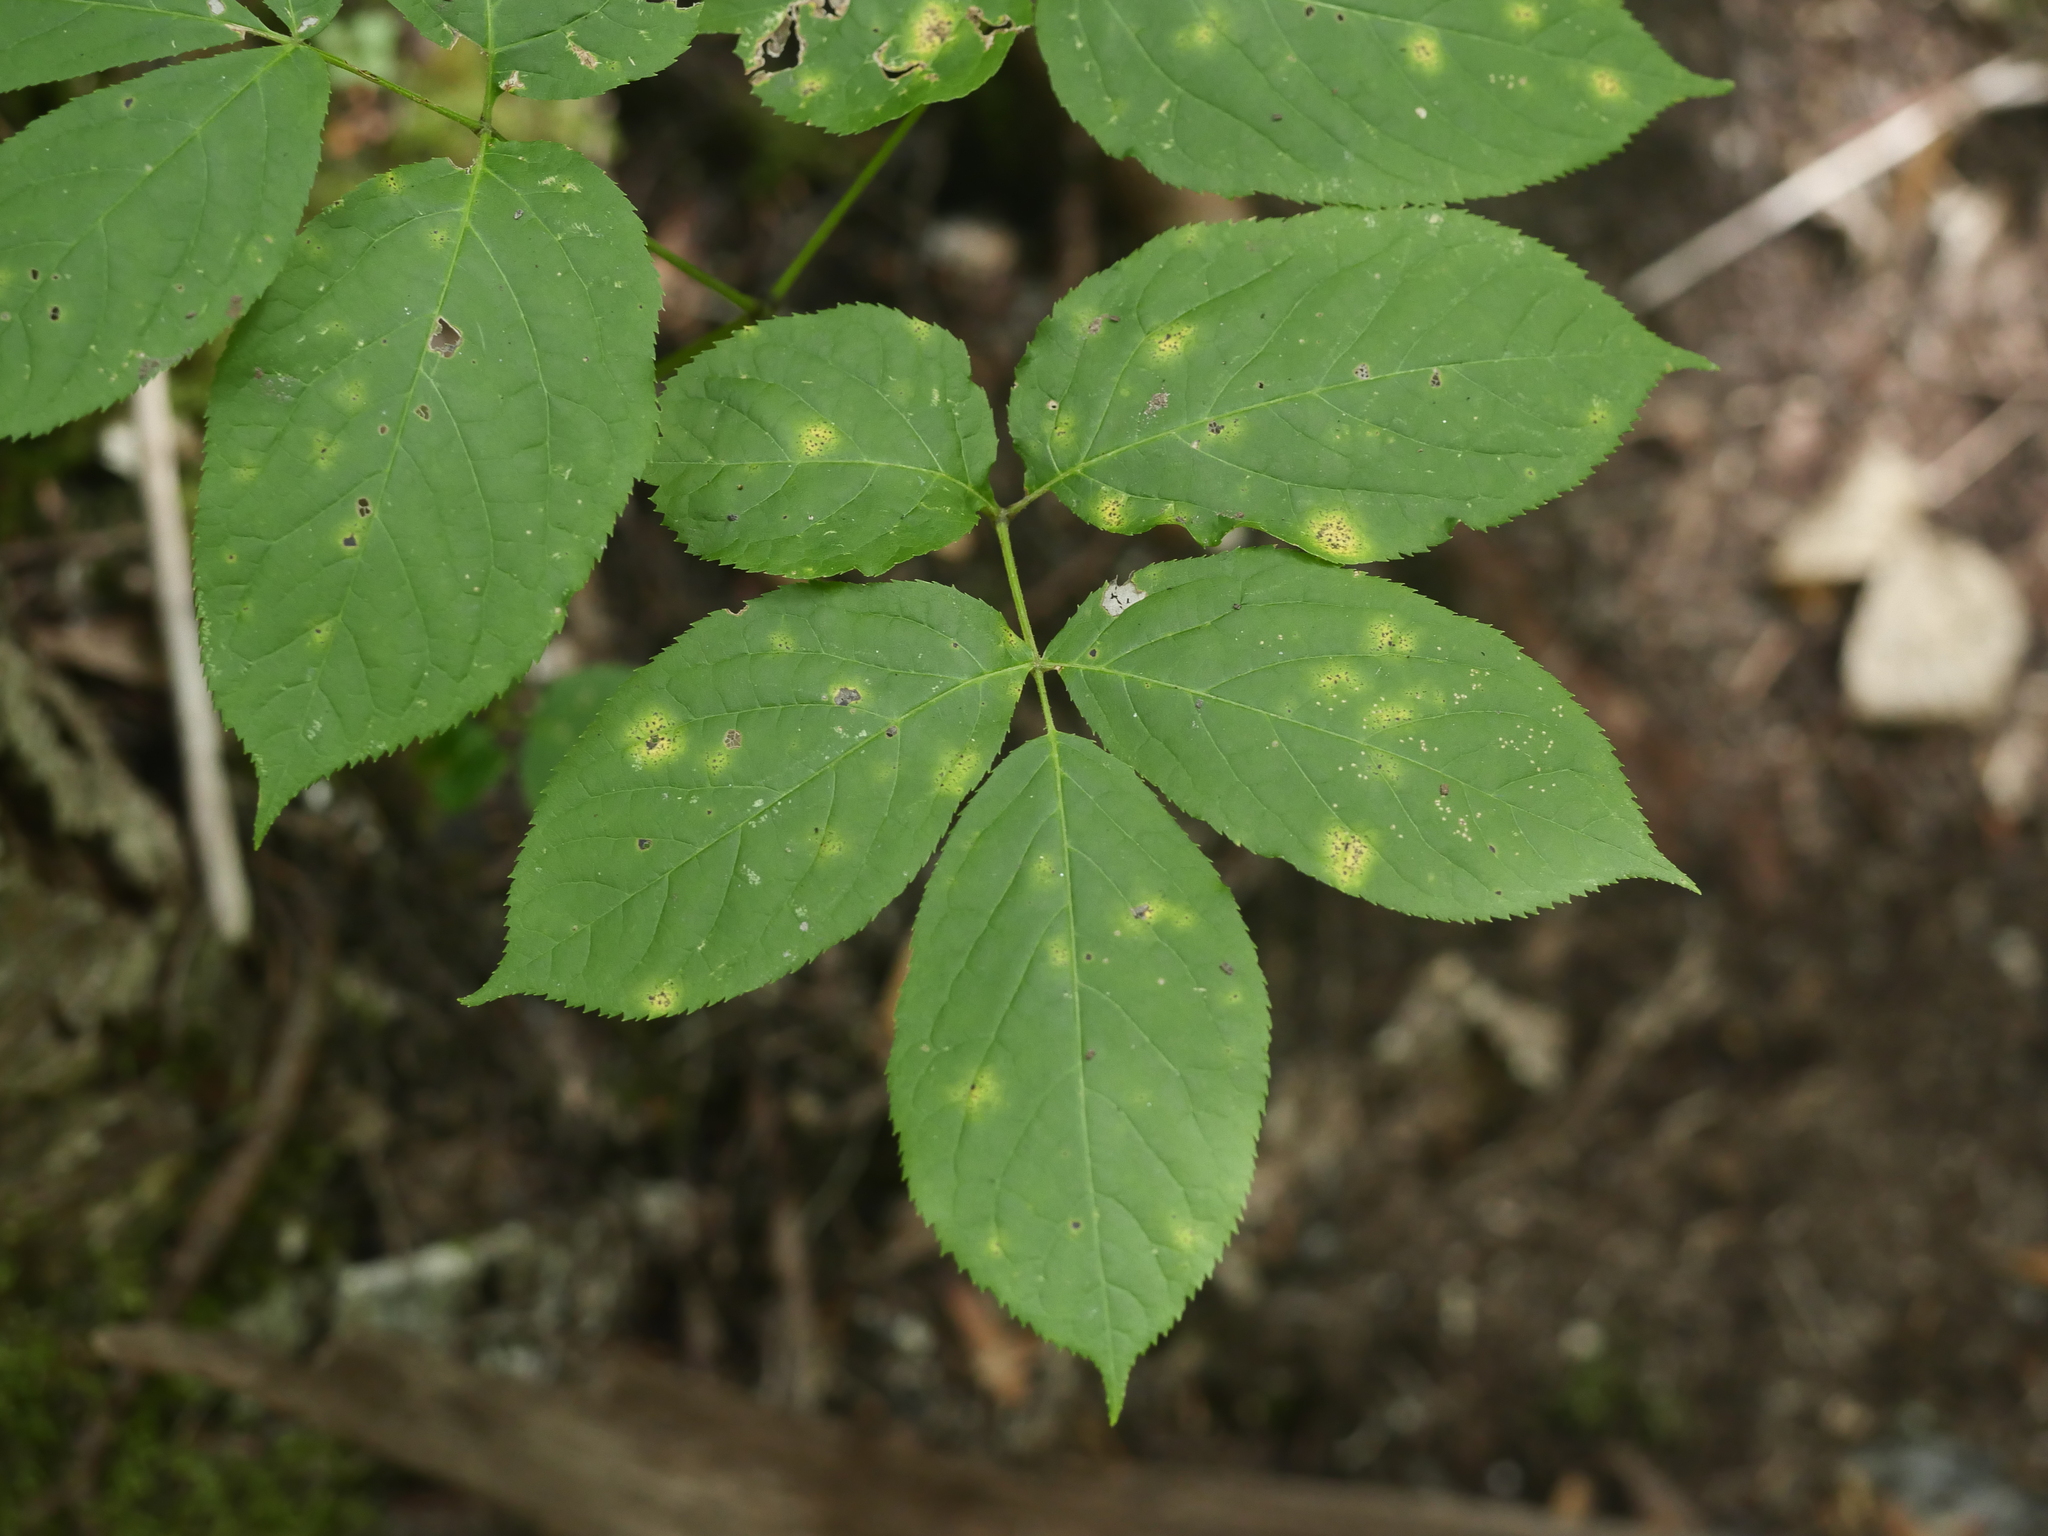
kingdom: Plantae
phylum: Tracheophyta
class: Magnoliopsida
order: Apiales
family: Araliaceae
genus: Aralia
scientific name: Aralia nudicaulis
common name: Wild sarsaparilla
